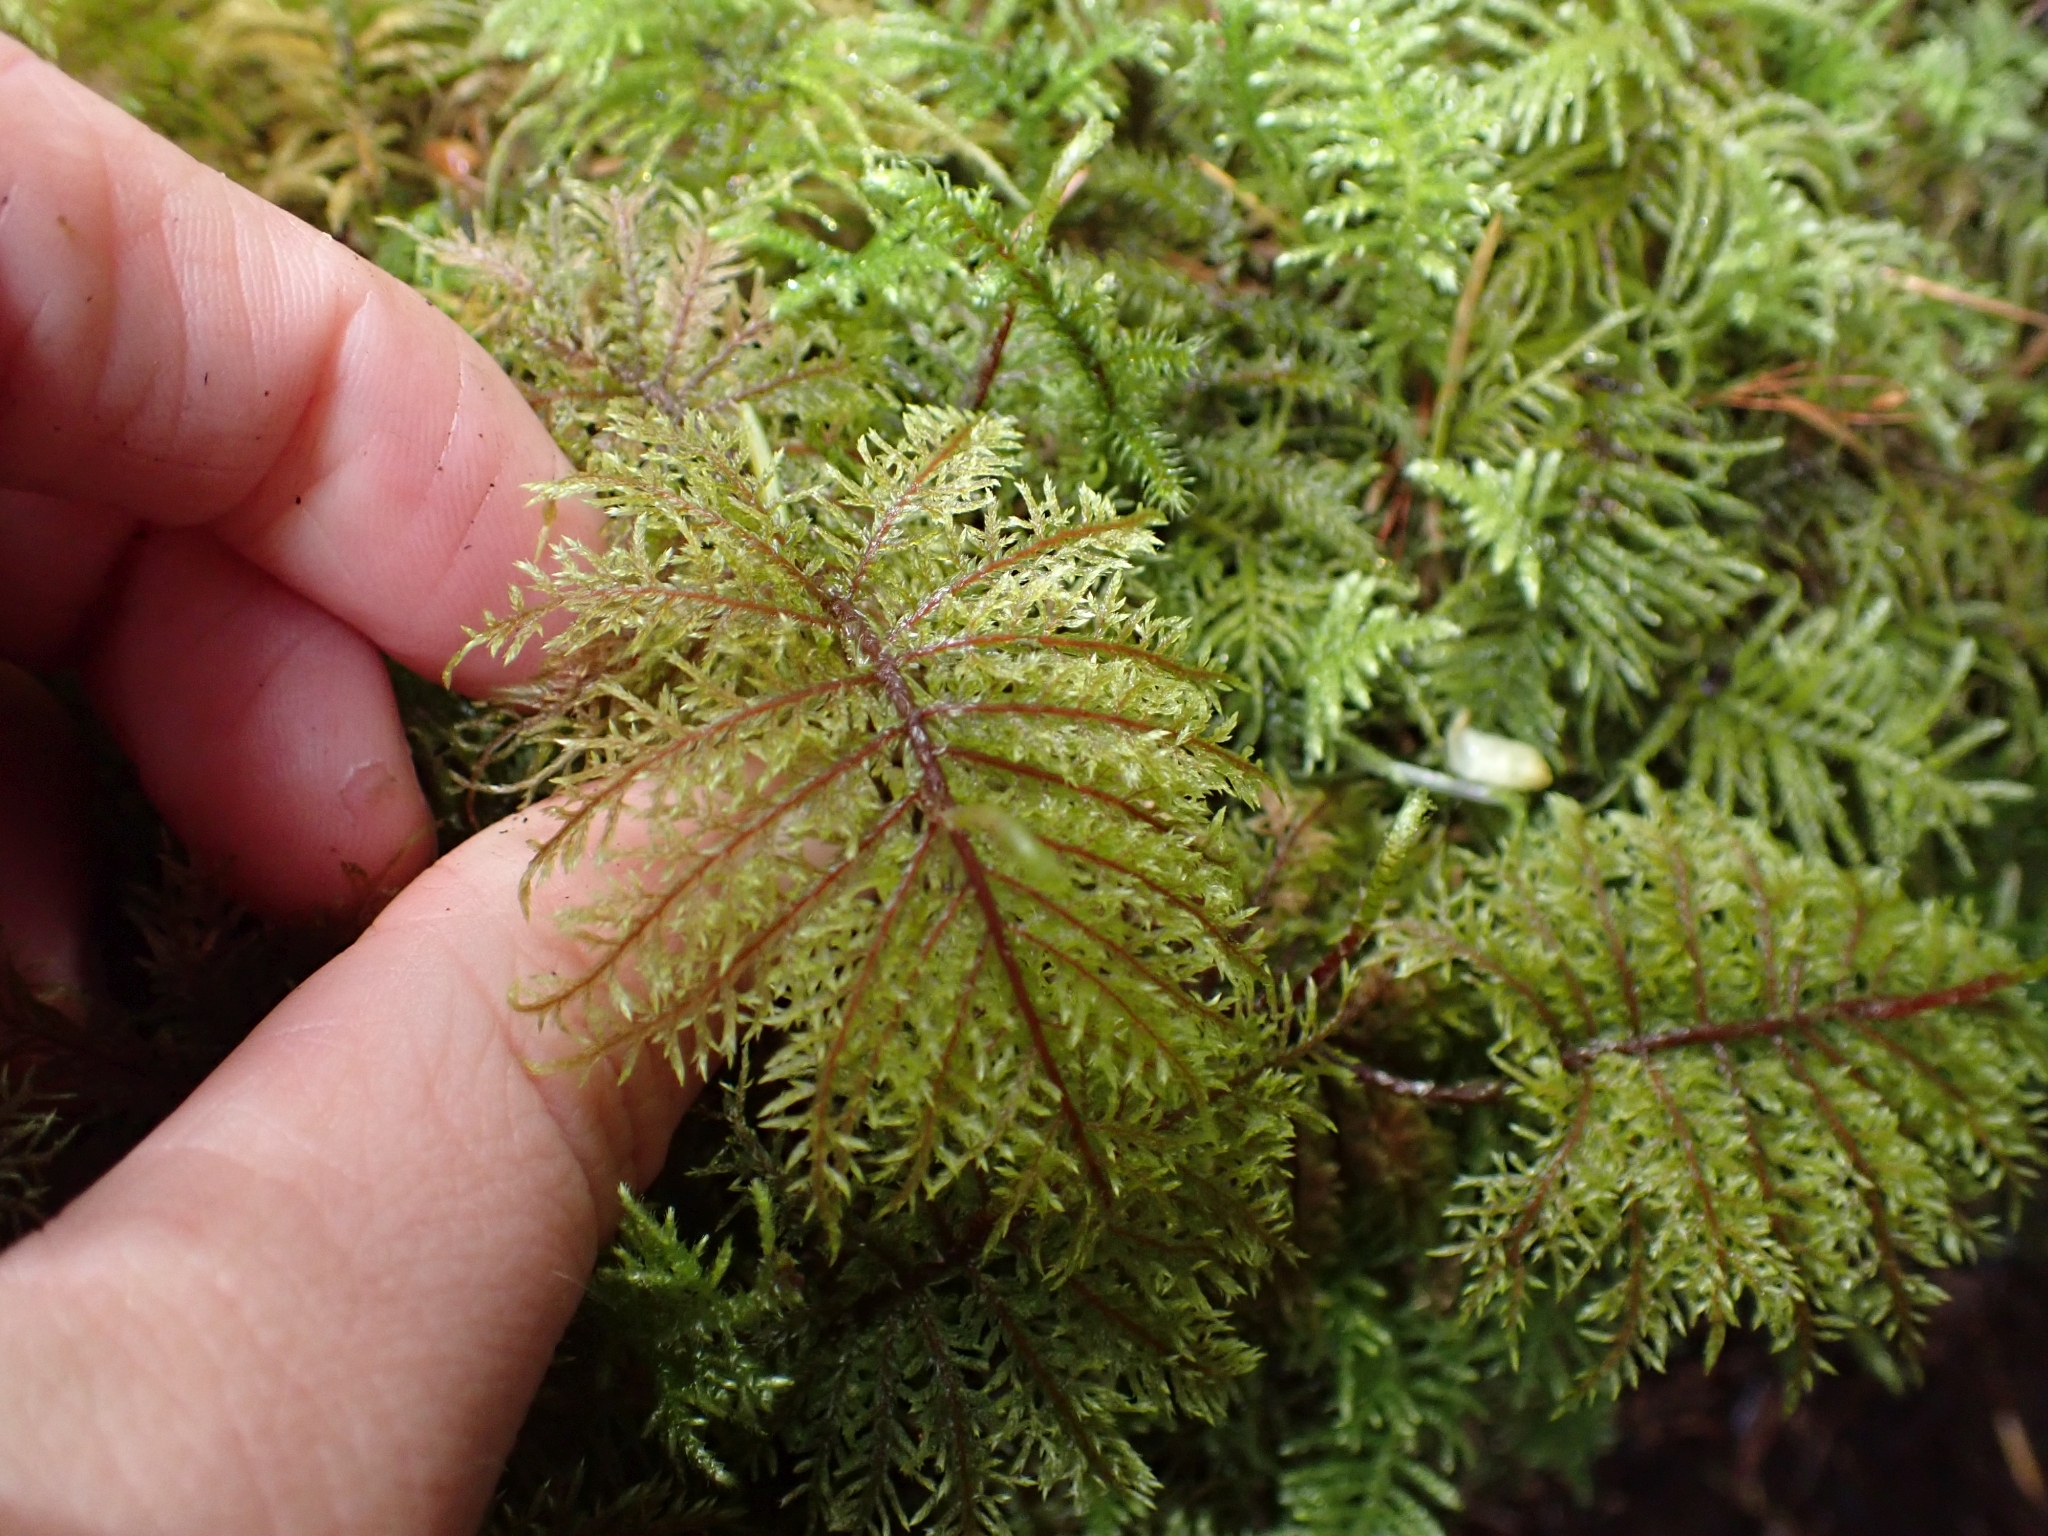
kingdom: Plantae
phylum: Bryophyta
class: Bryopsida
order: Hypnales
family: Hylocomiaceae
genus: Hylocomium
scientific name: Hylocomium splendens
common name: Stairstep moss
